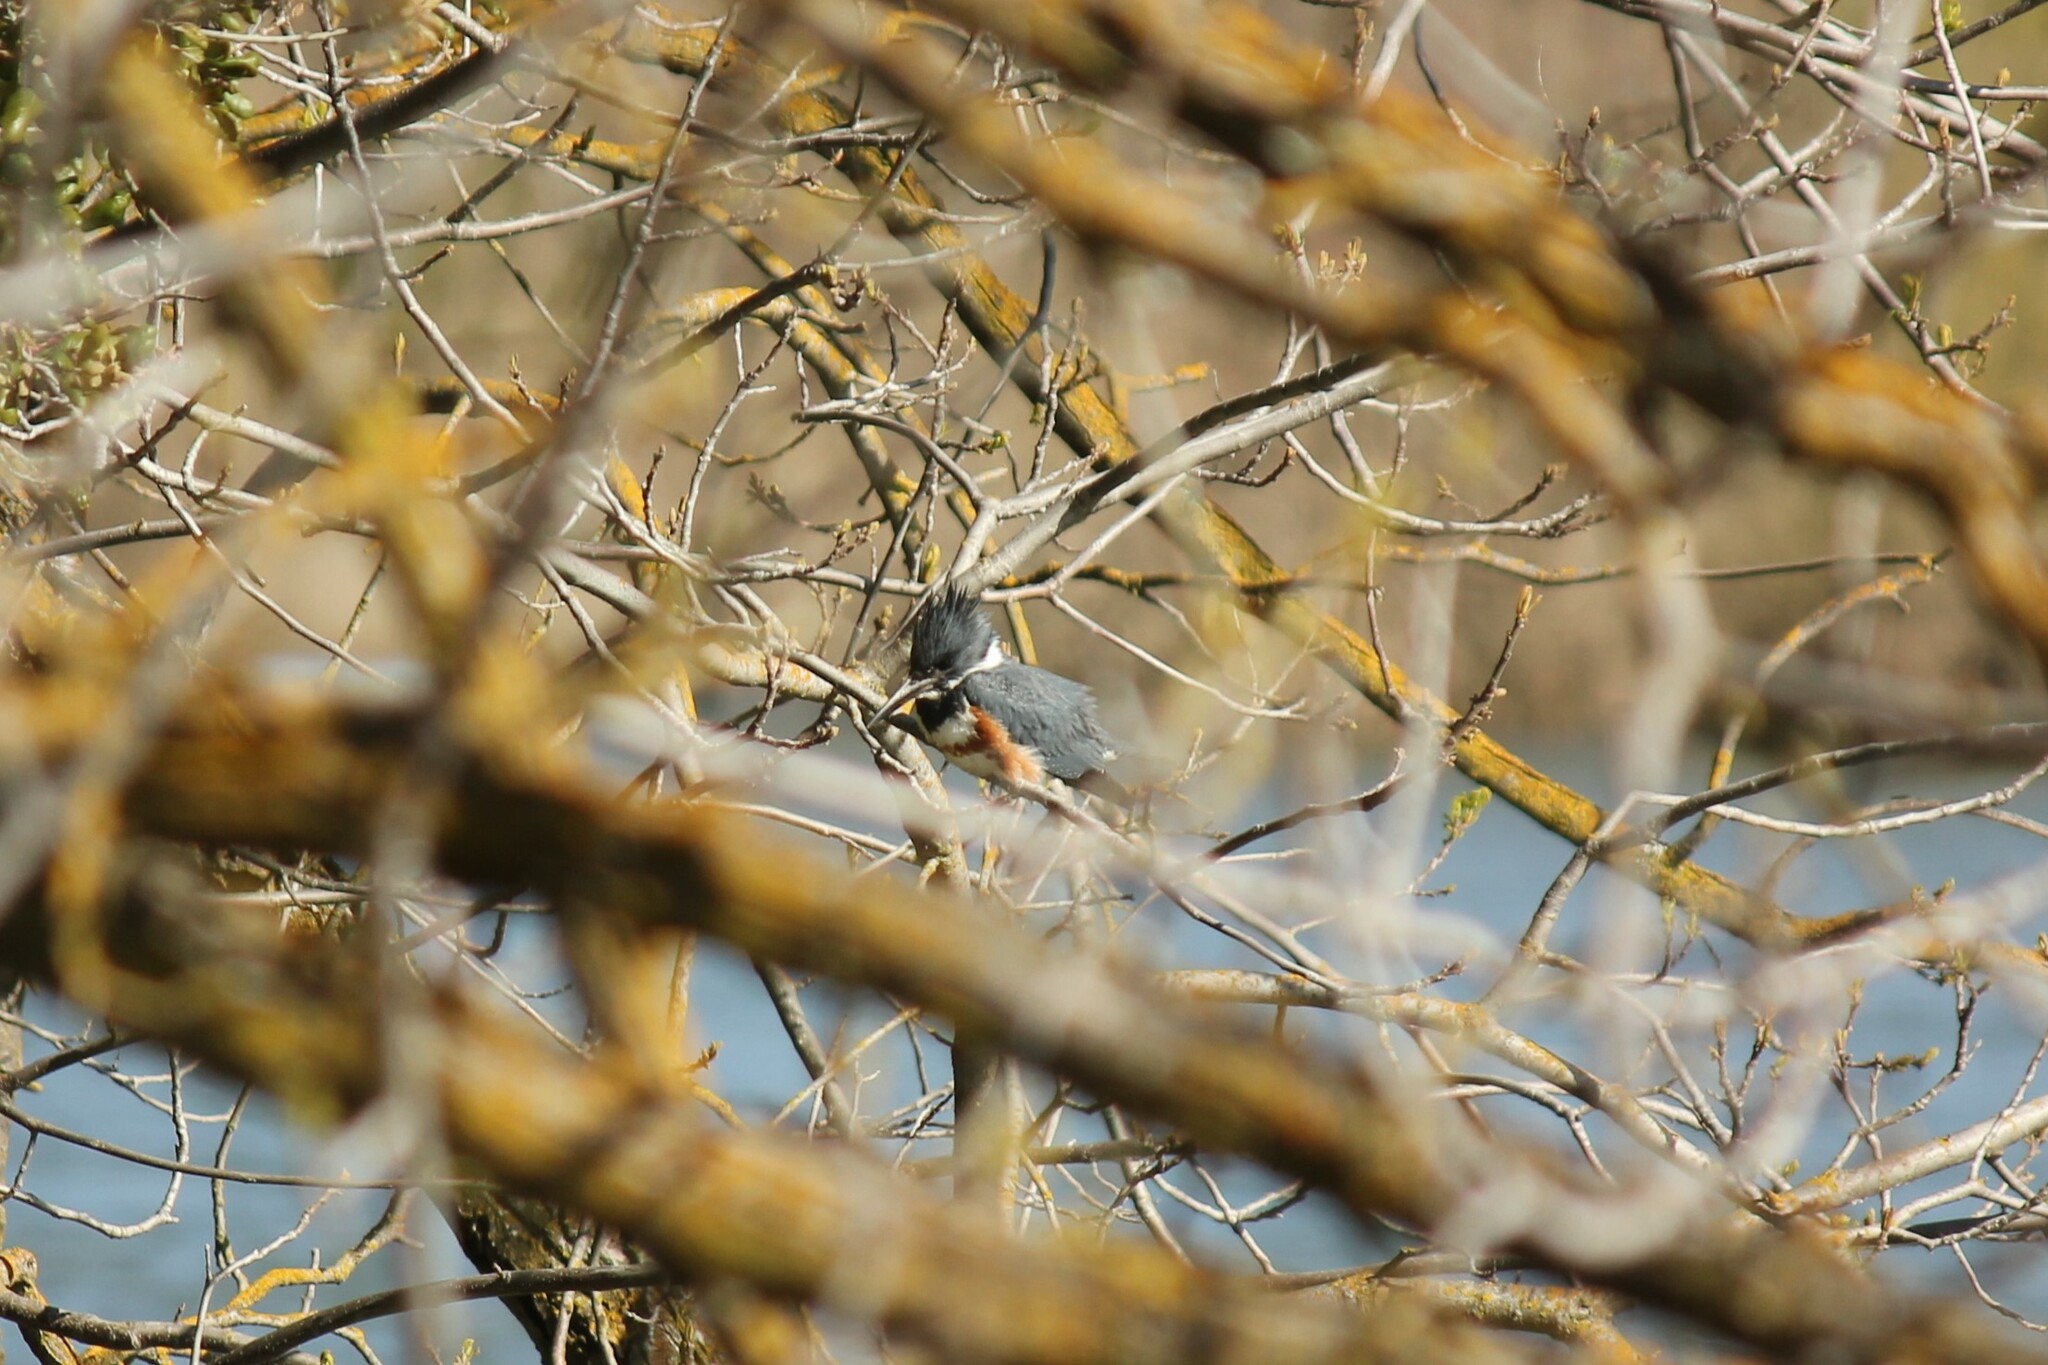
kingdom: Animalia
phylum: Chordata
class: Aves
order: Coraciiformes
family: Alcedinidae
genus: Megaceryle
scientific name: Megaceryle alcyon
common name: Belted kingfisher
